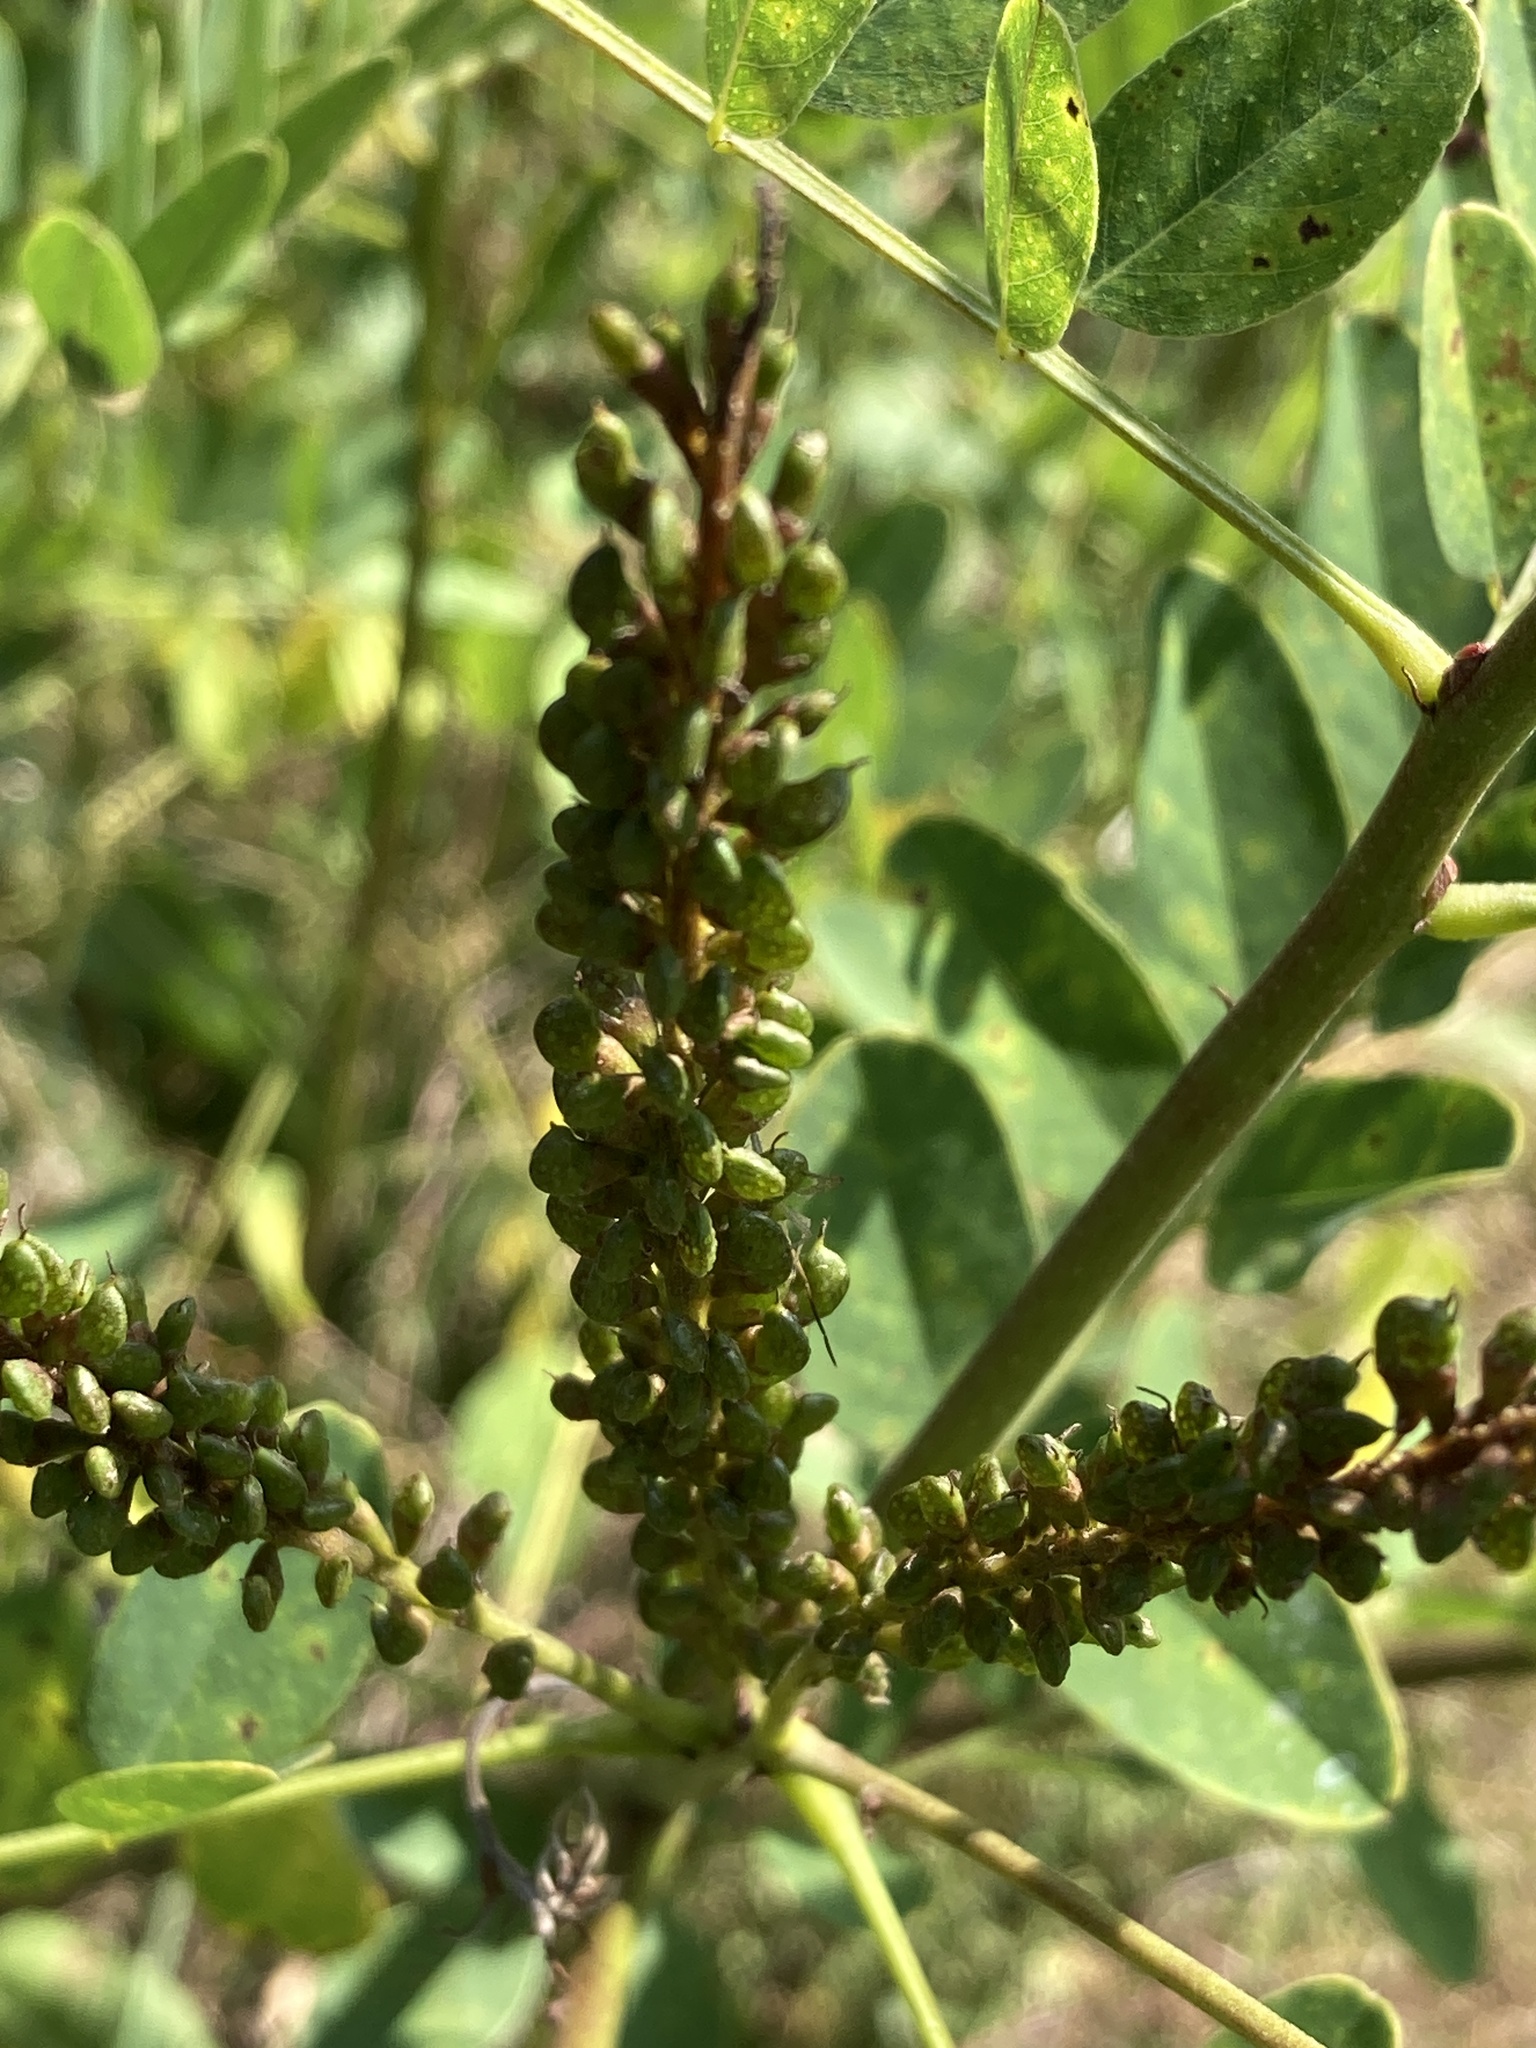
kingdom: Plantae
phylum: Tracheophyta
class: Magnoliopsida
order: Fabales
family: Fabaceae
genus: Amorpha
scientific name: Amorpha fruticosa
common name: False indigo
